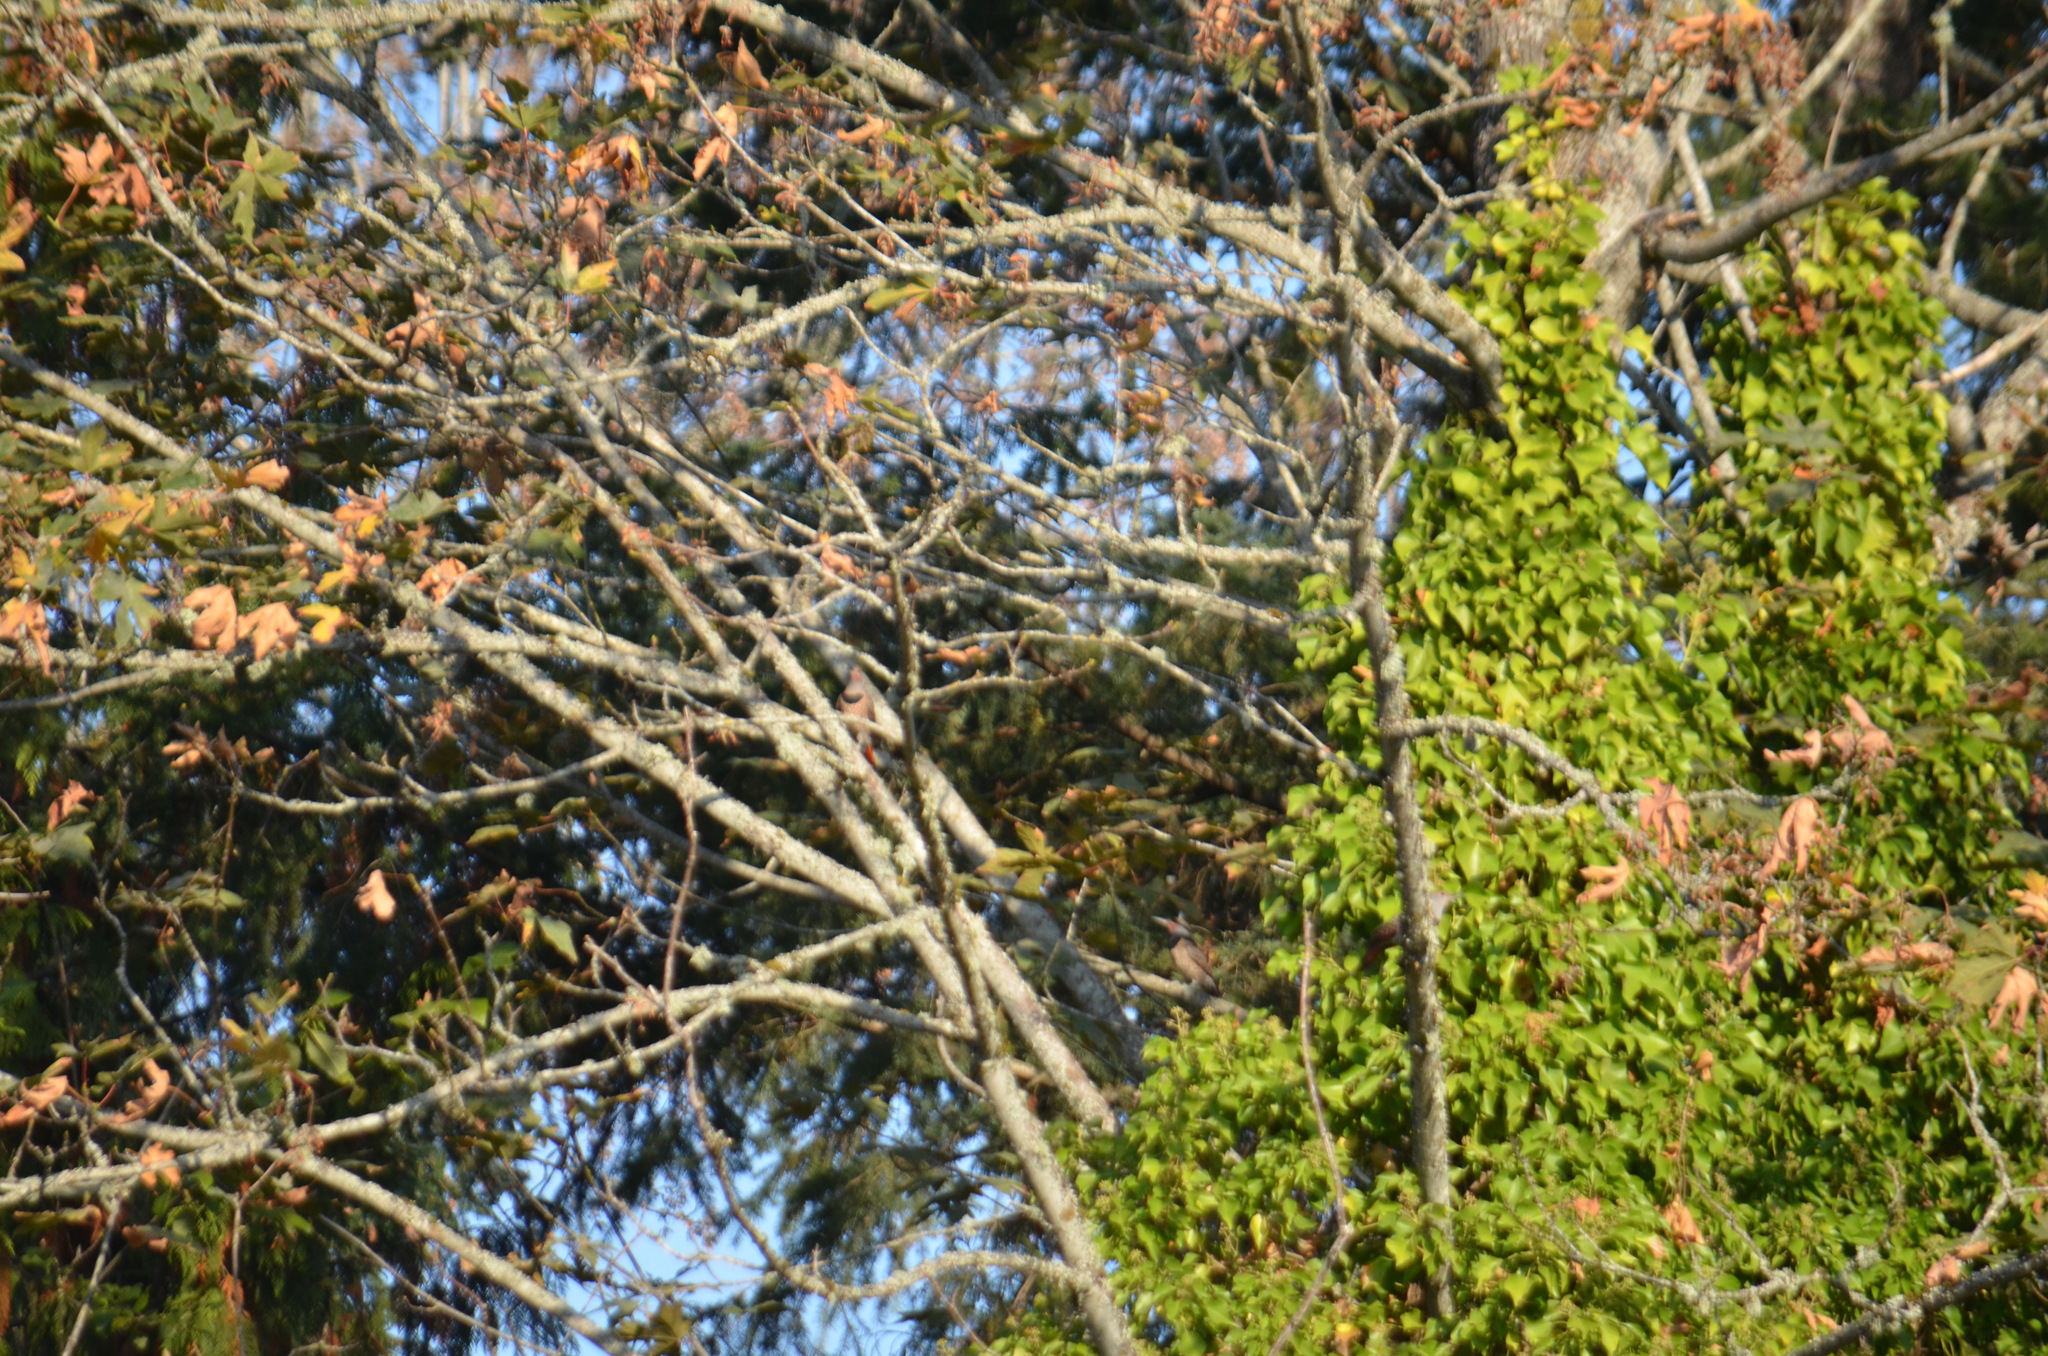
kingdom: Animalia
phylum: Chordata
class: Aves
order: Piciformes
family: Picidae
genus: Colaptes
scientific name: Colaptes auratus
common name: Northern flicker
